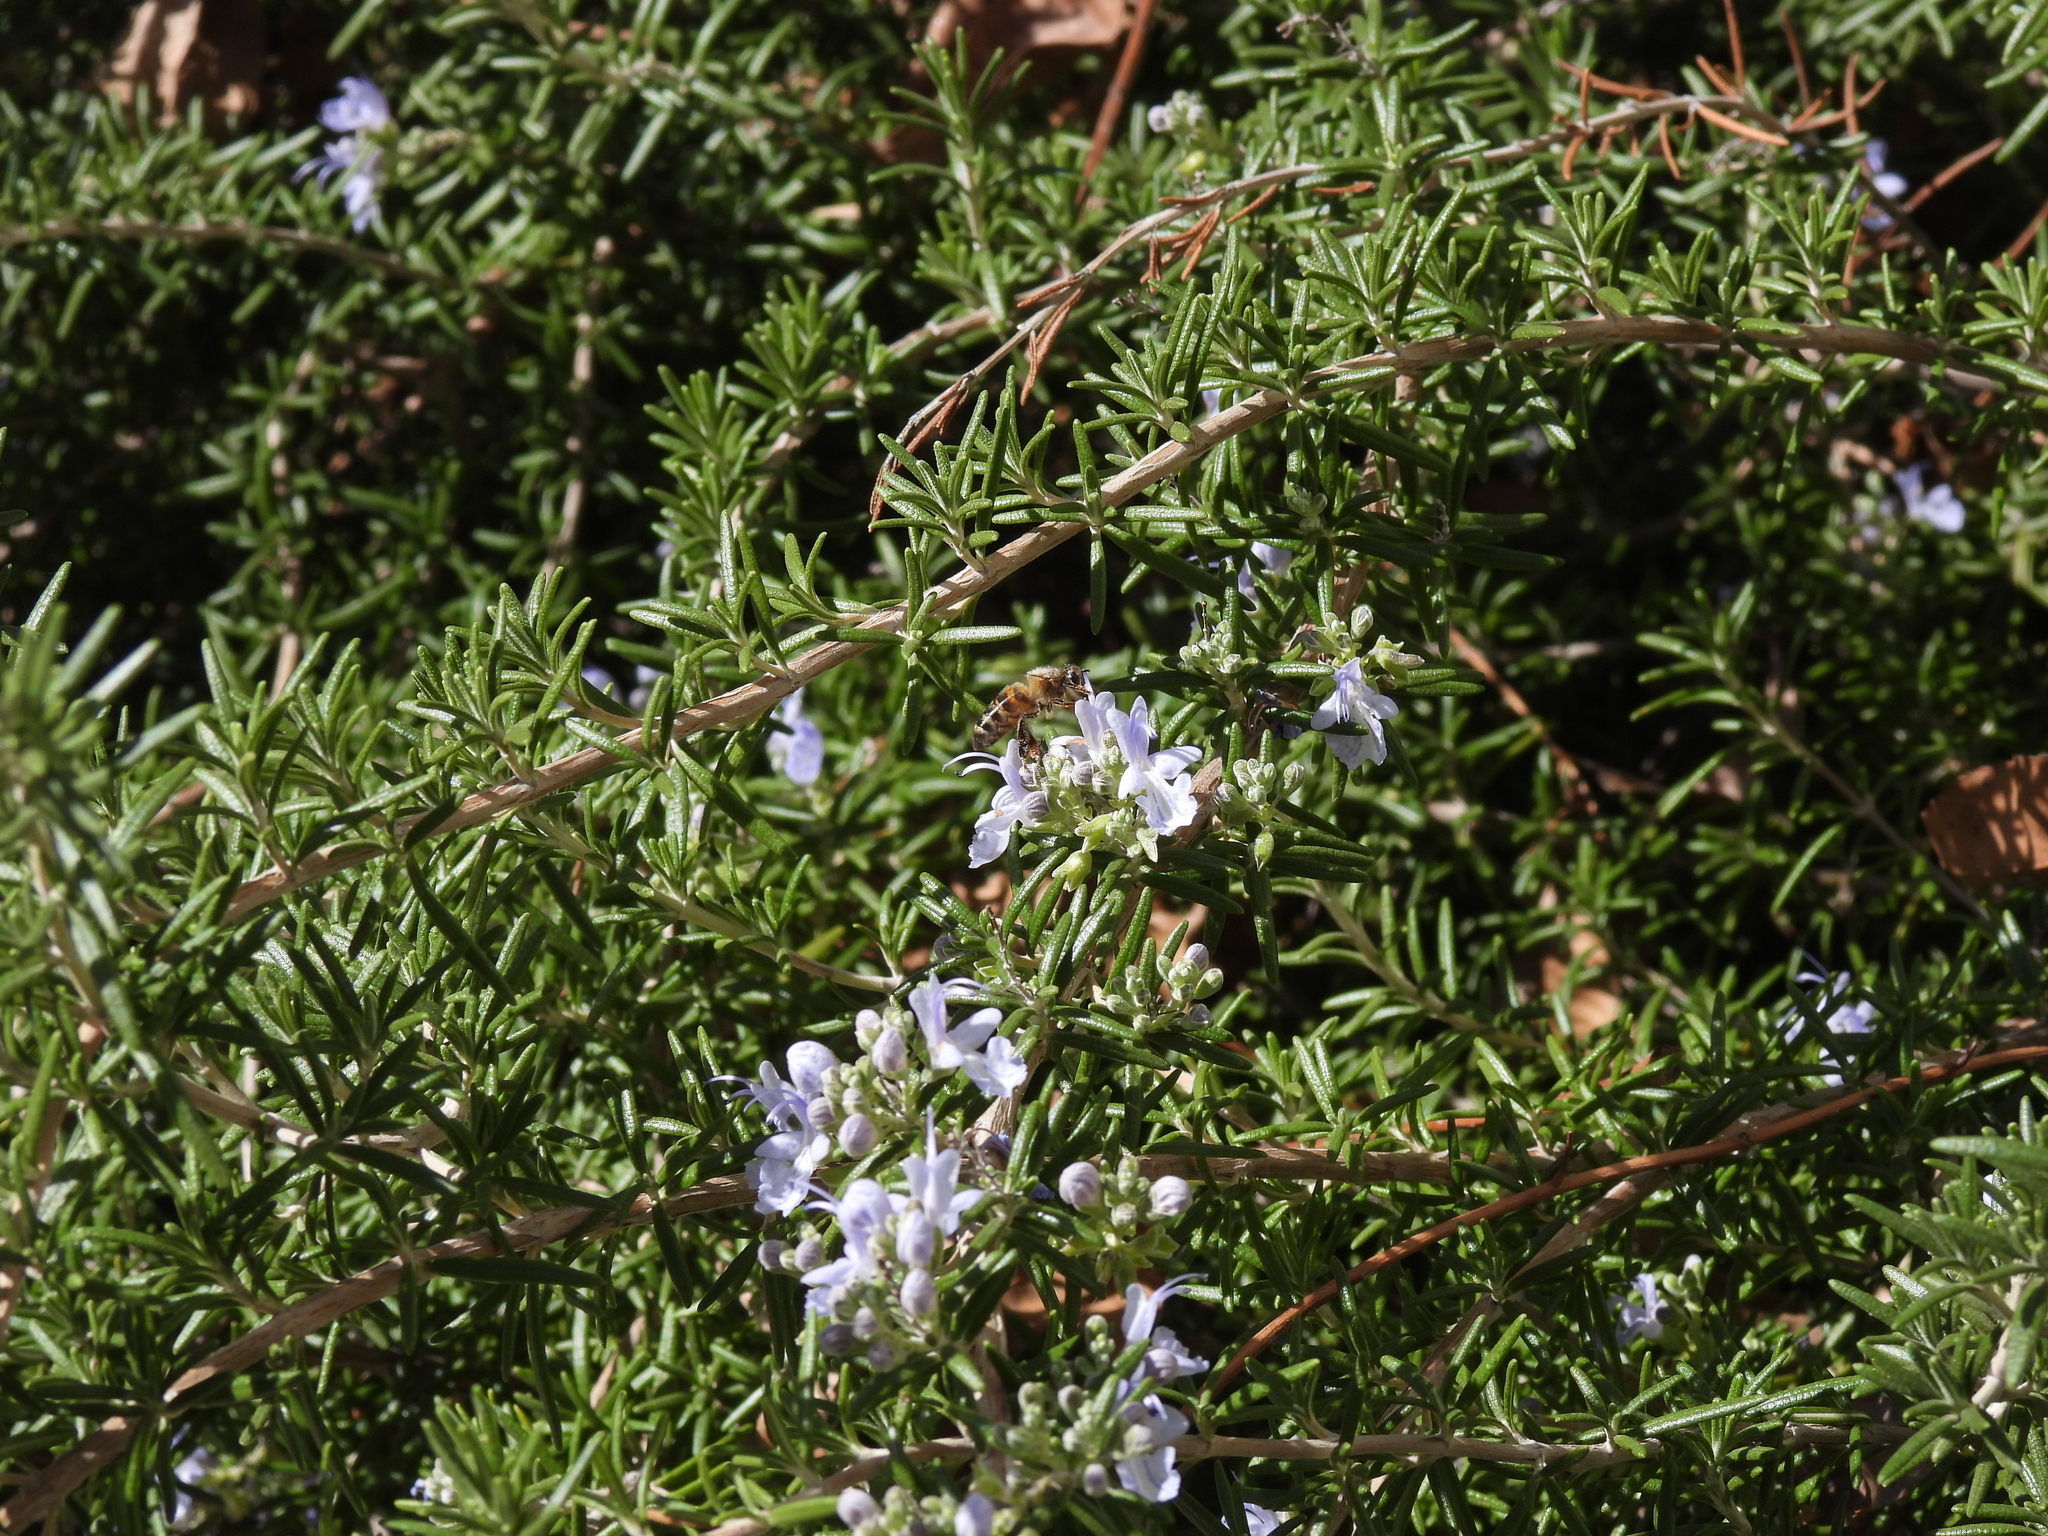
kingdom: Animalia
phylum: Arthropoda
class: Insecta
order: Hymenoptera
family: Apidae
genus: Apis
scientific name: Apis mellifera
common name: Honey bee
